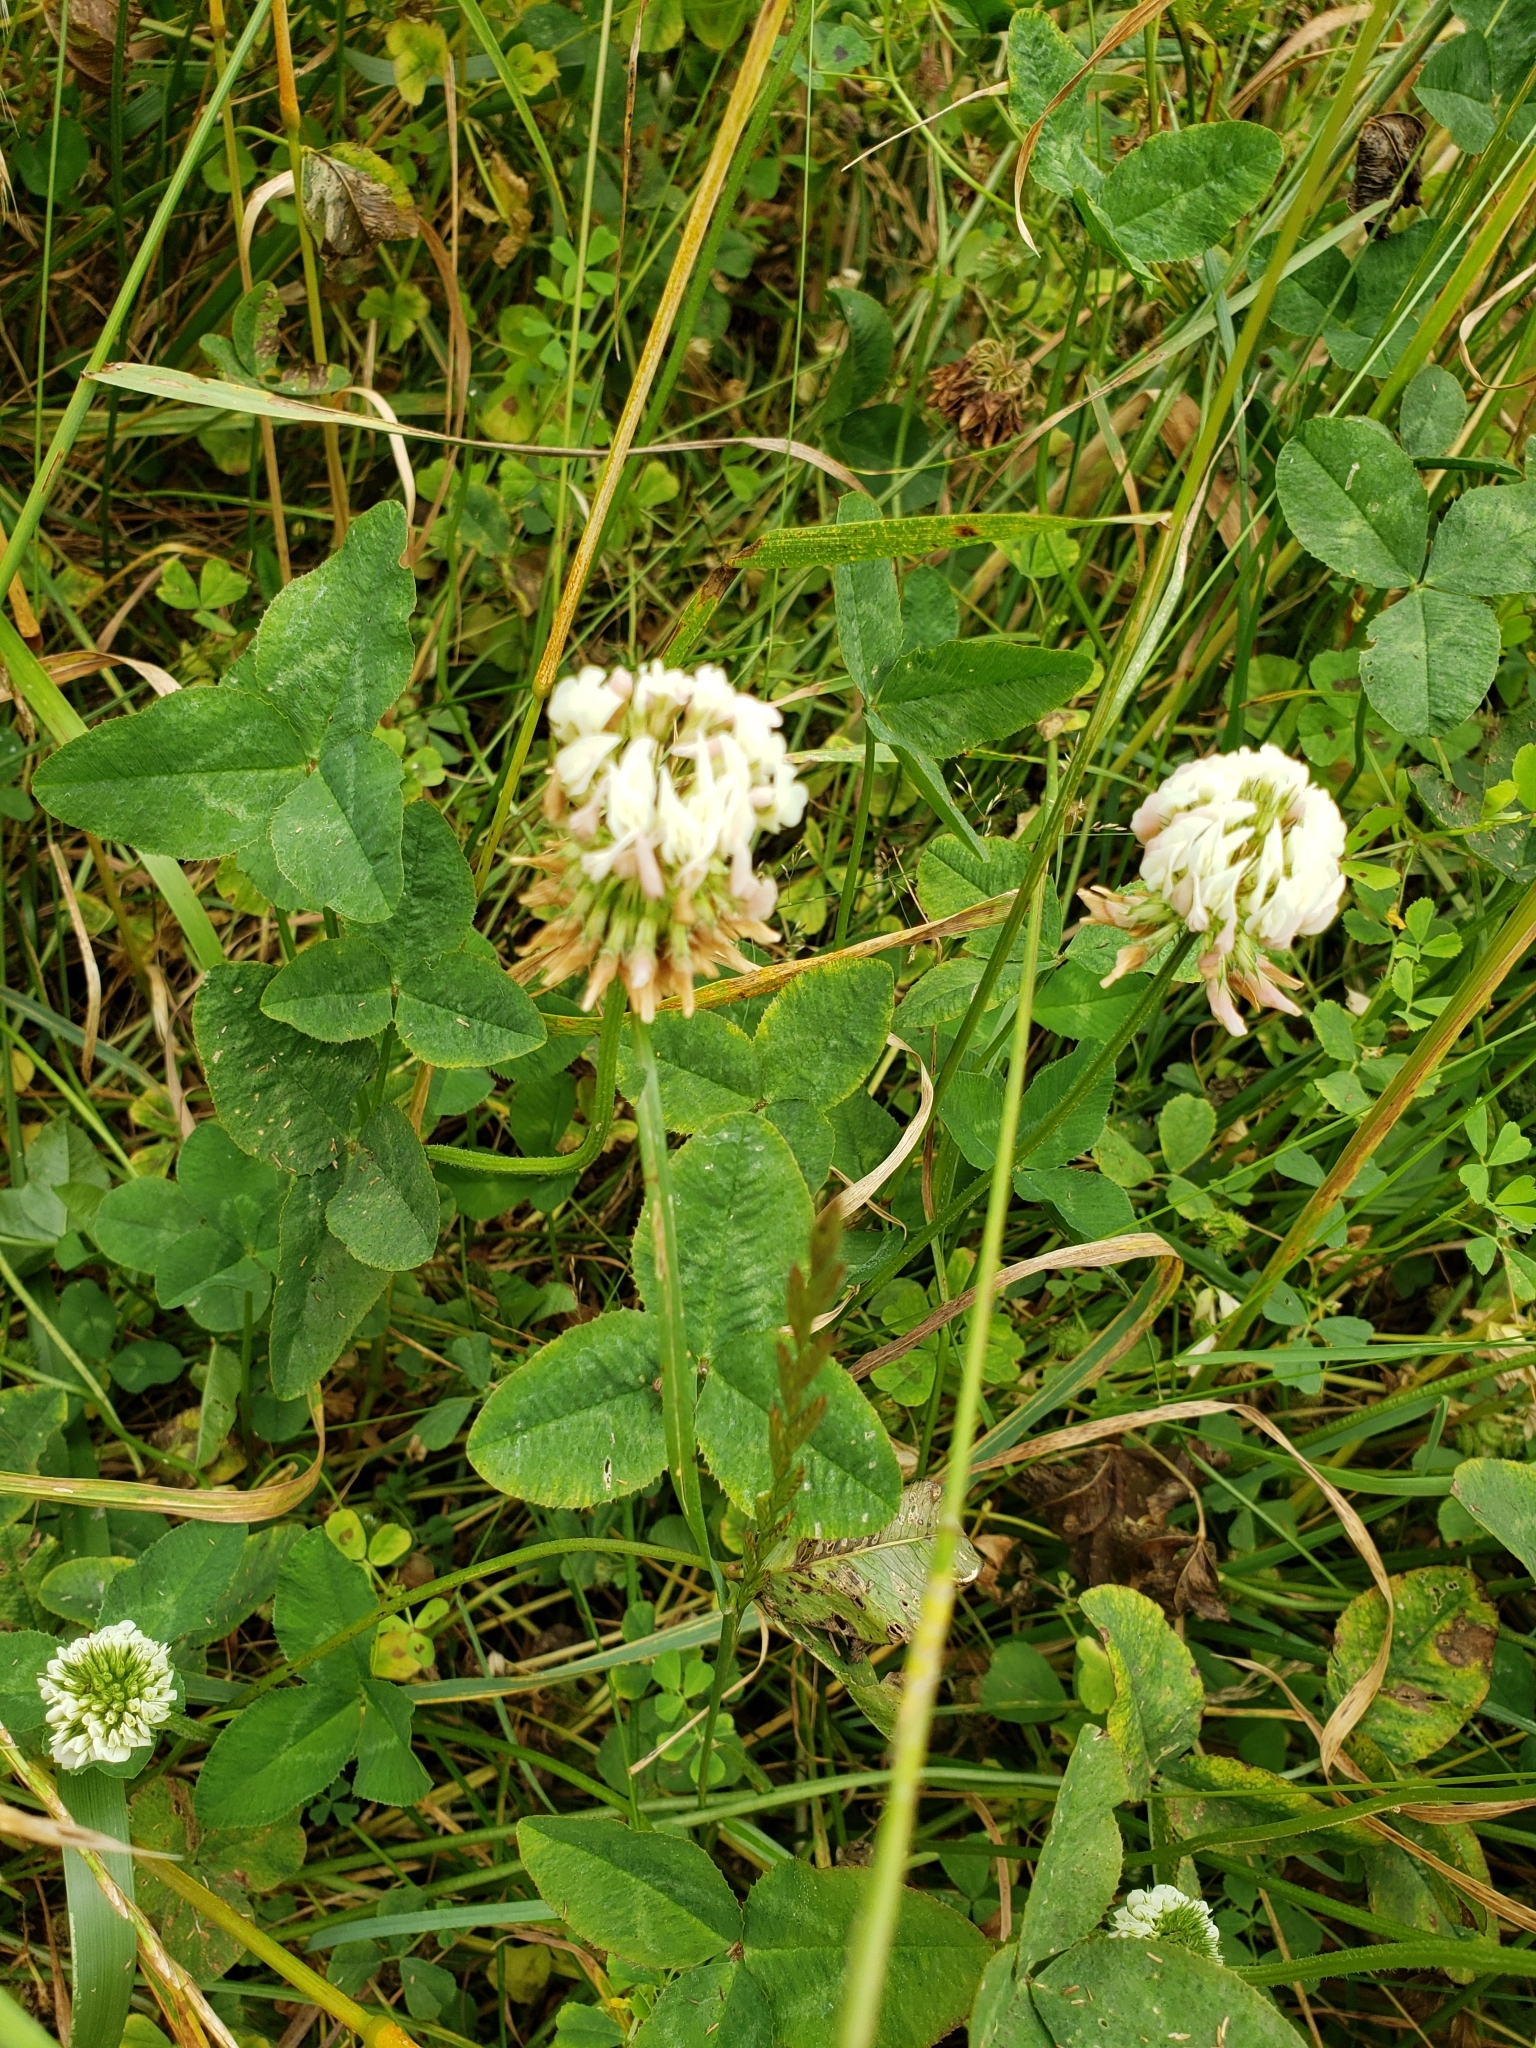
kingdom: Plantae
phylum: Tracheophyta
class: Magnoliopsida
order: Fabales
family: Fabaceae
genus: Trifolium
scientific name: Trifolium repens
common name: White clover
